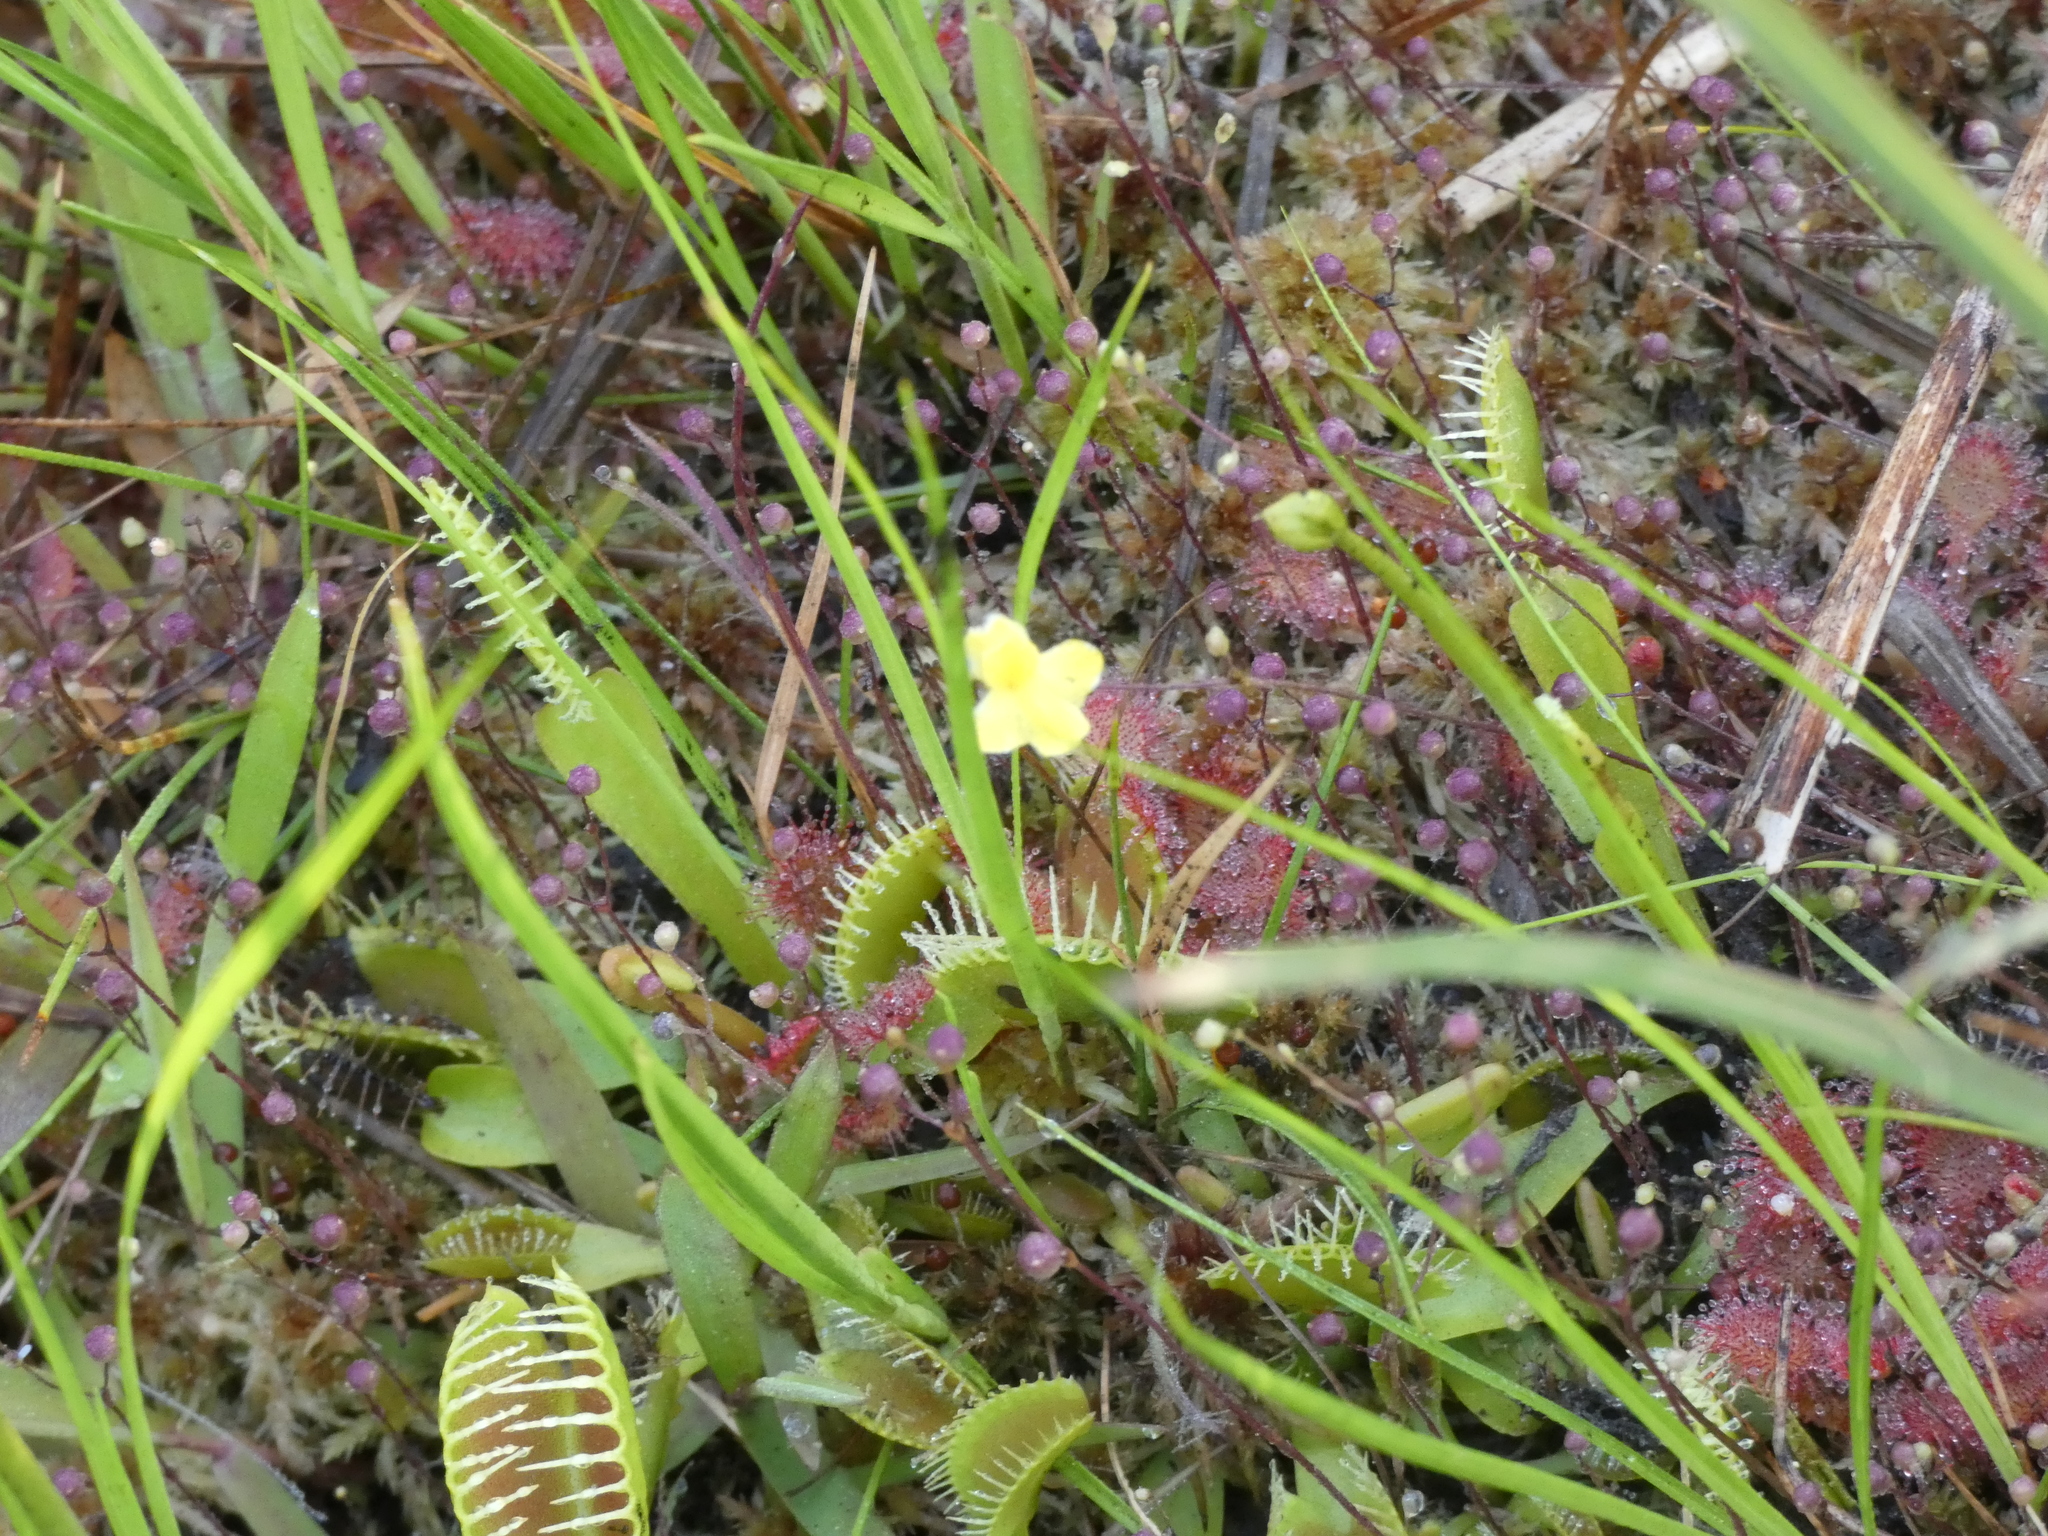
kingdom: Plantae
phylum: Tracheophyta
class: Magnoliopsida
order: Lamiales
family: Lentibulariaceae
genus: Utricularia
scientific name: Utricularia subulata
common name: Tiny bladderwort
